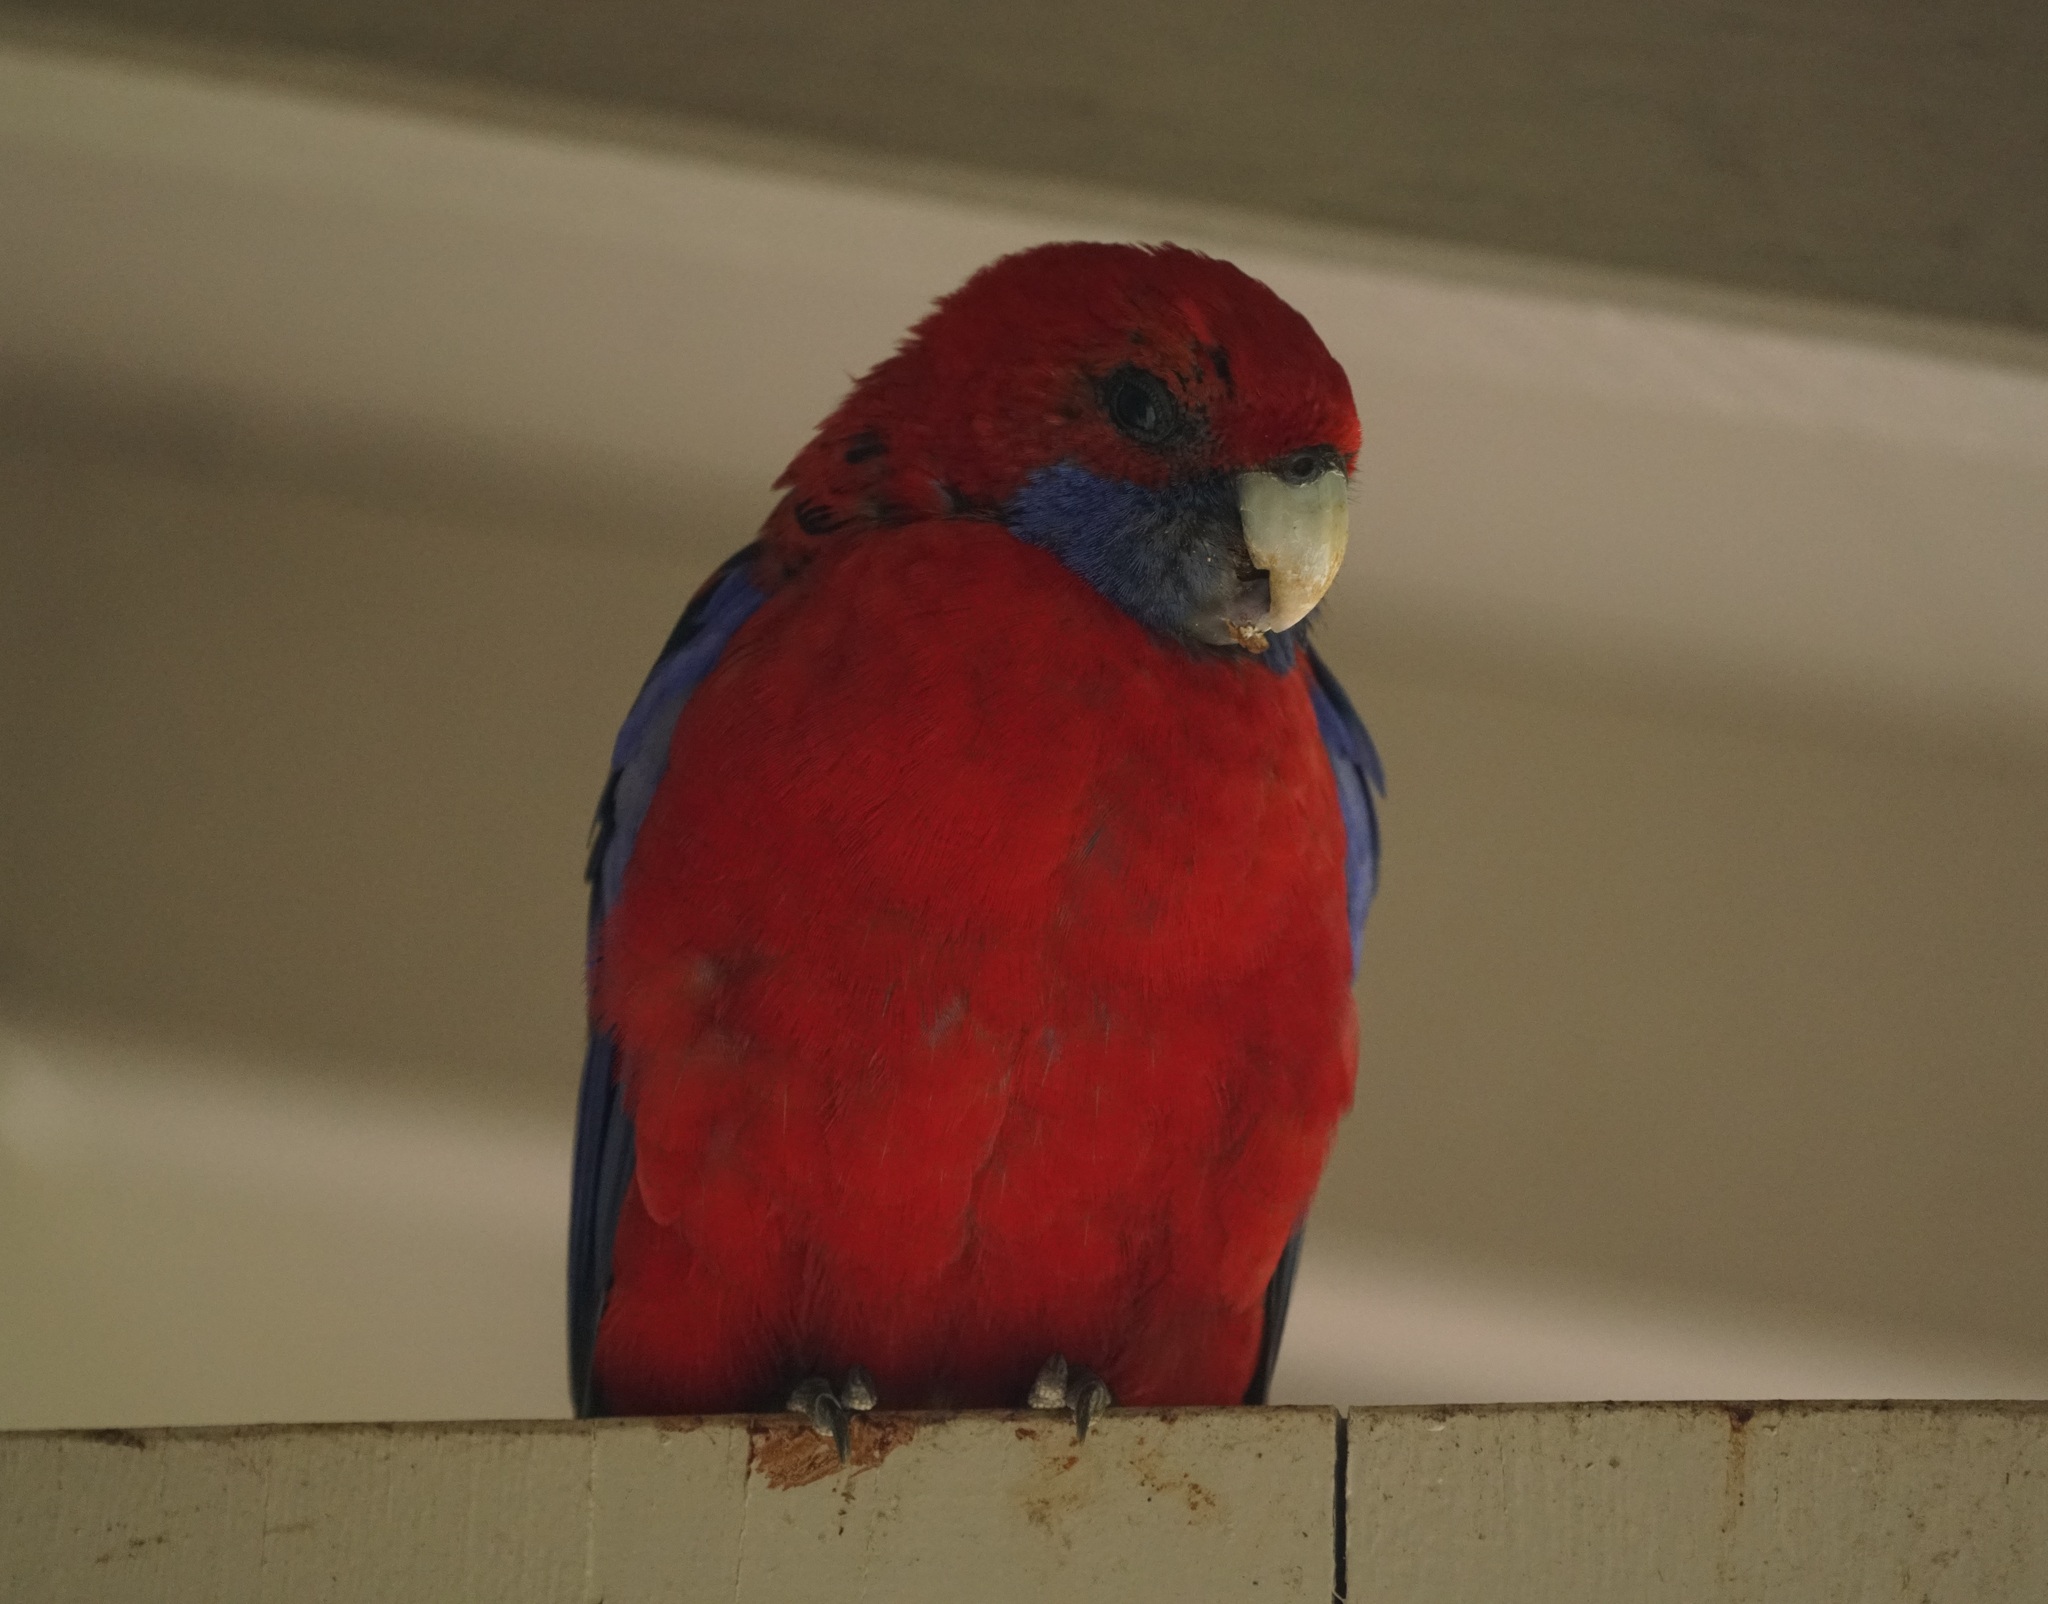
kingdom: Animalia
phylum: Chordata
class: Aves
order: Psittaciformes
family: Psittacidae
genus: Platycercus
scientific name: Platycercus elegans
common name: Crimson rosella
